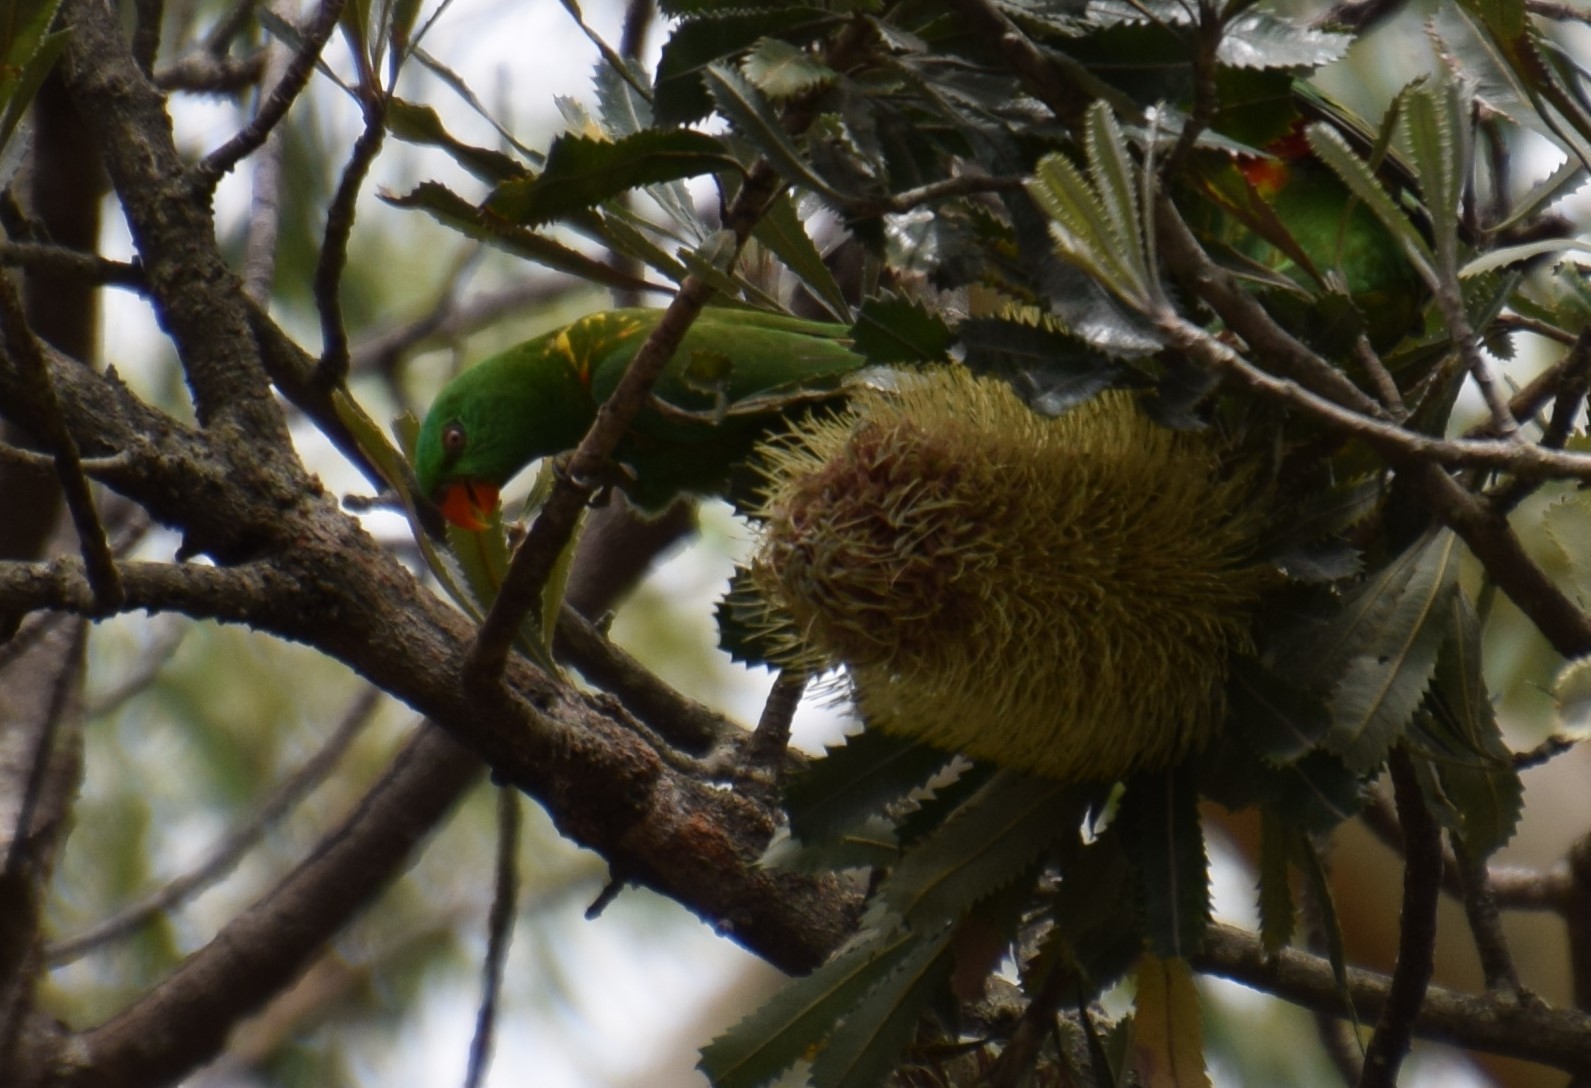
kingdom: Animalia
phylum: Chordata
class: Aves
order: Psittaciformes
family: Psittacidae
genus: Trichoglossus
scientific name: Trichoglossus chlorolepidotus
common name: Scaly-breasted lorikeet
